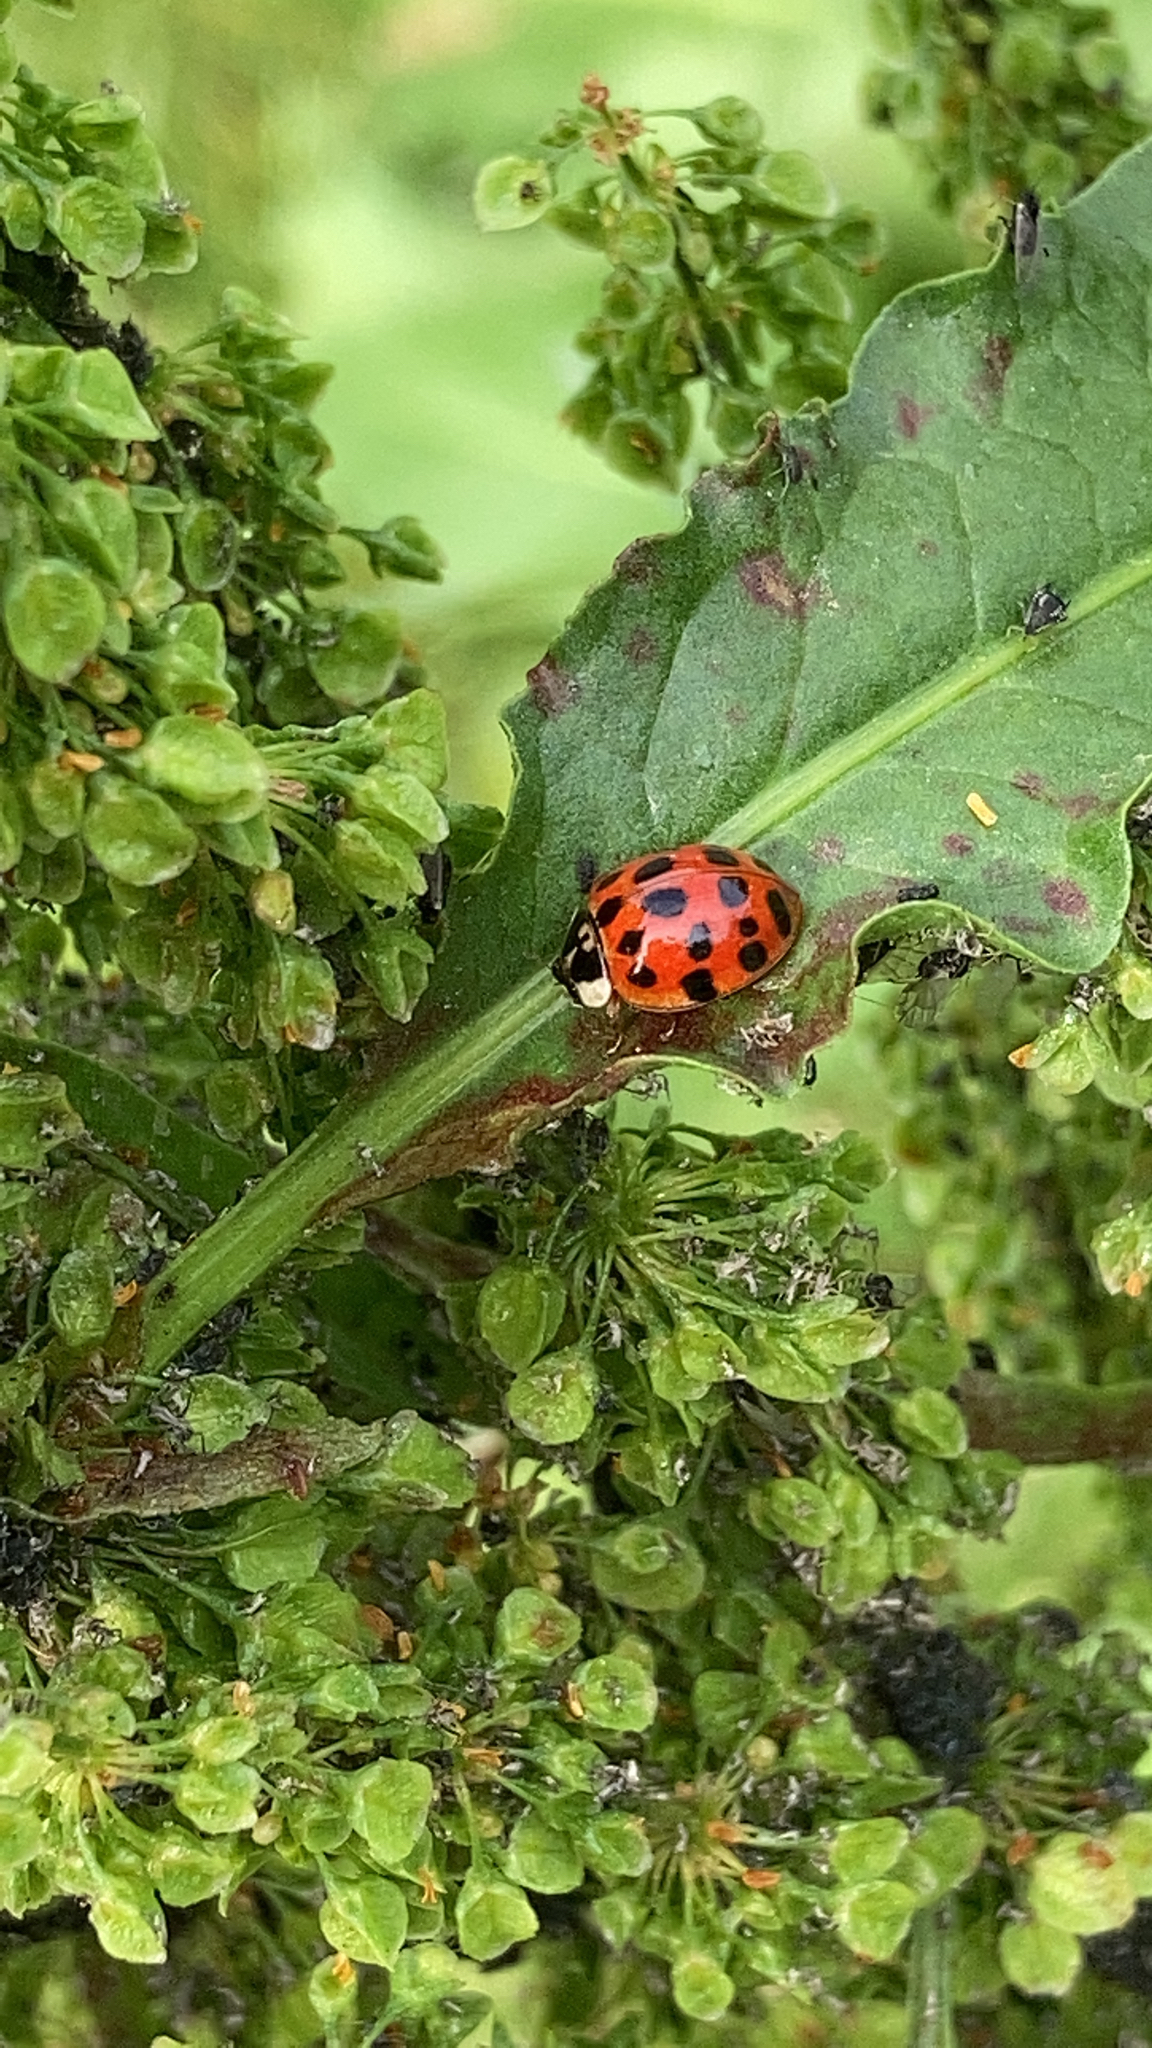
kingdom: Animalia
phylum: Arthropoda
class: Insecta
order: Coleoptera
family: Coccinellidae
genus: Harmonia
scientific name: Harmonia axyridis
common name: Harlequin ladybird
